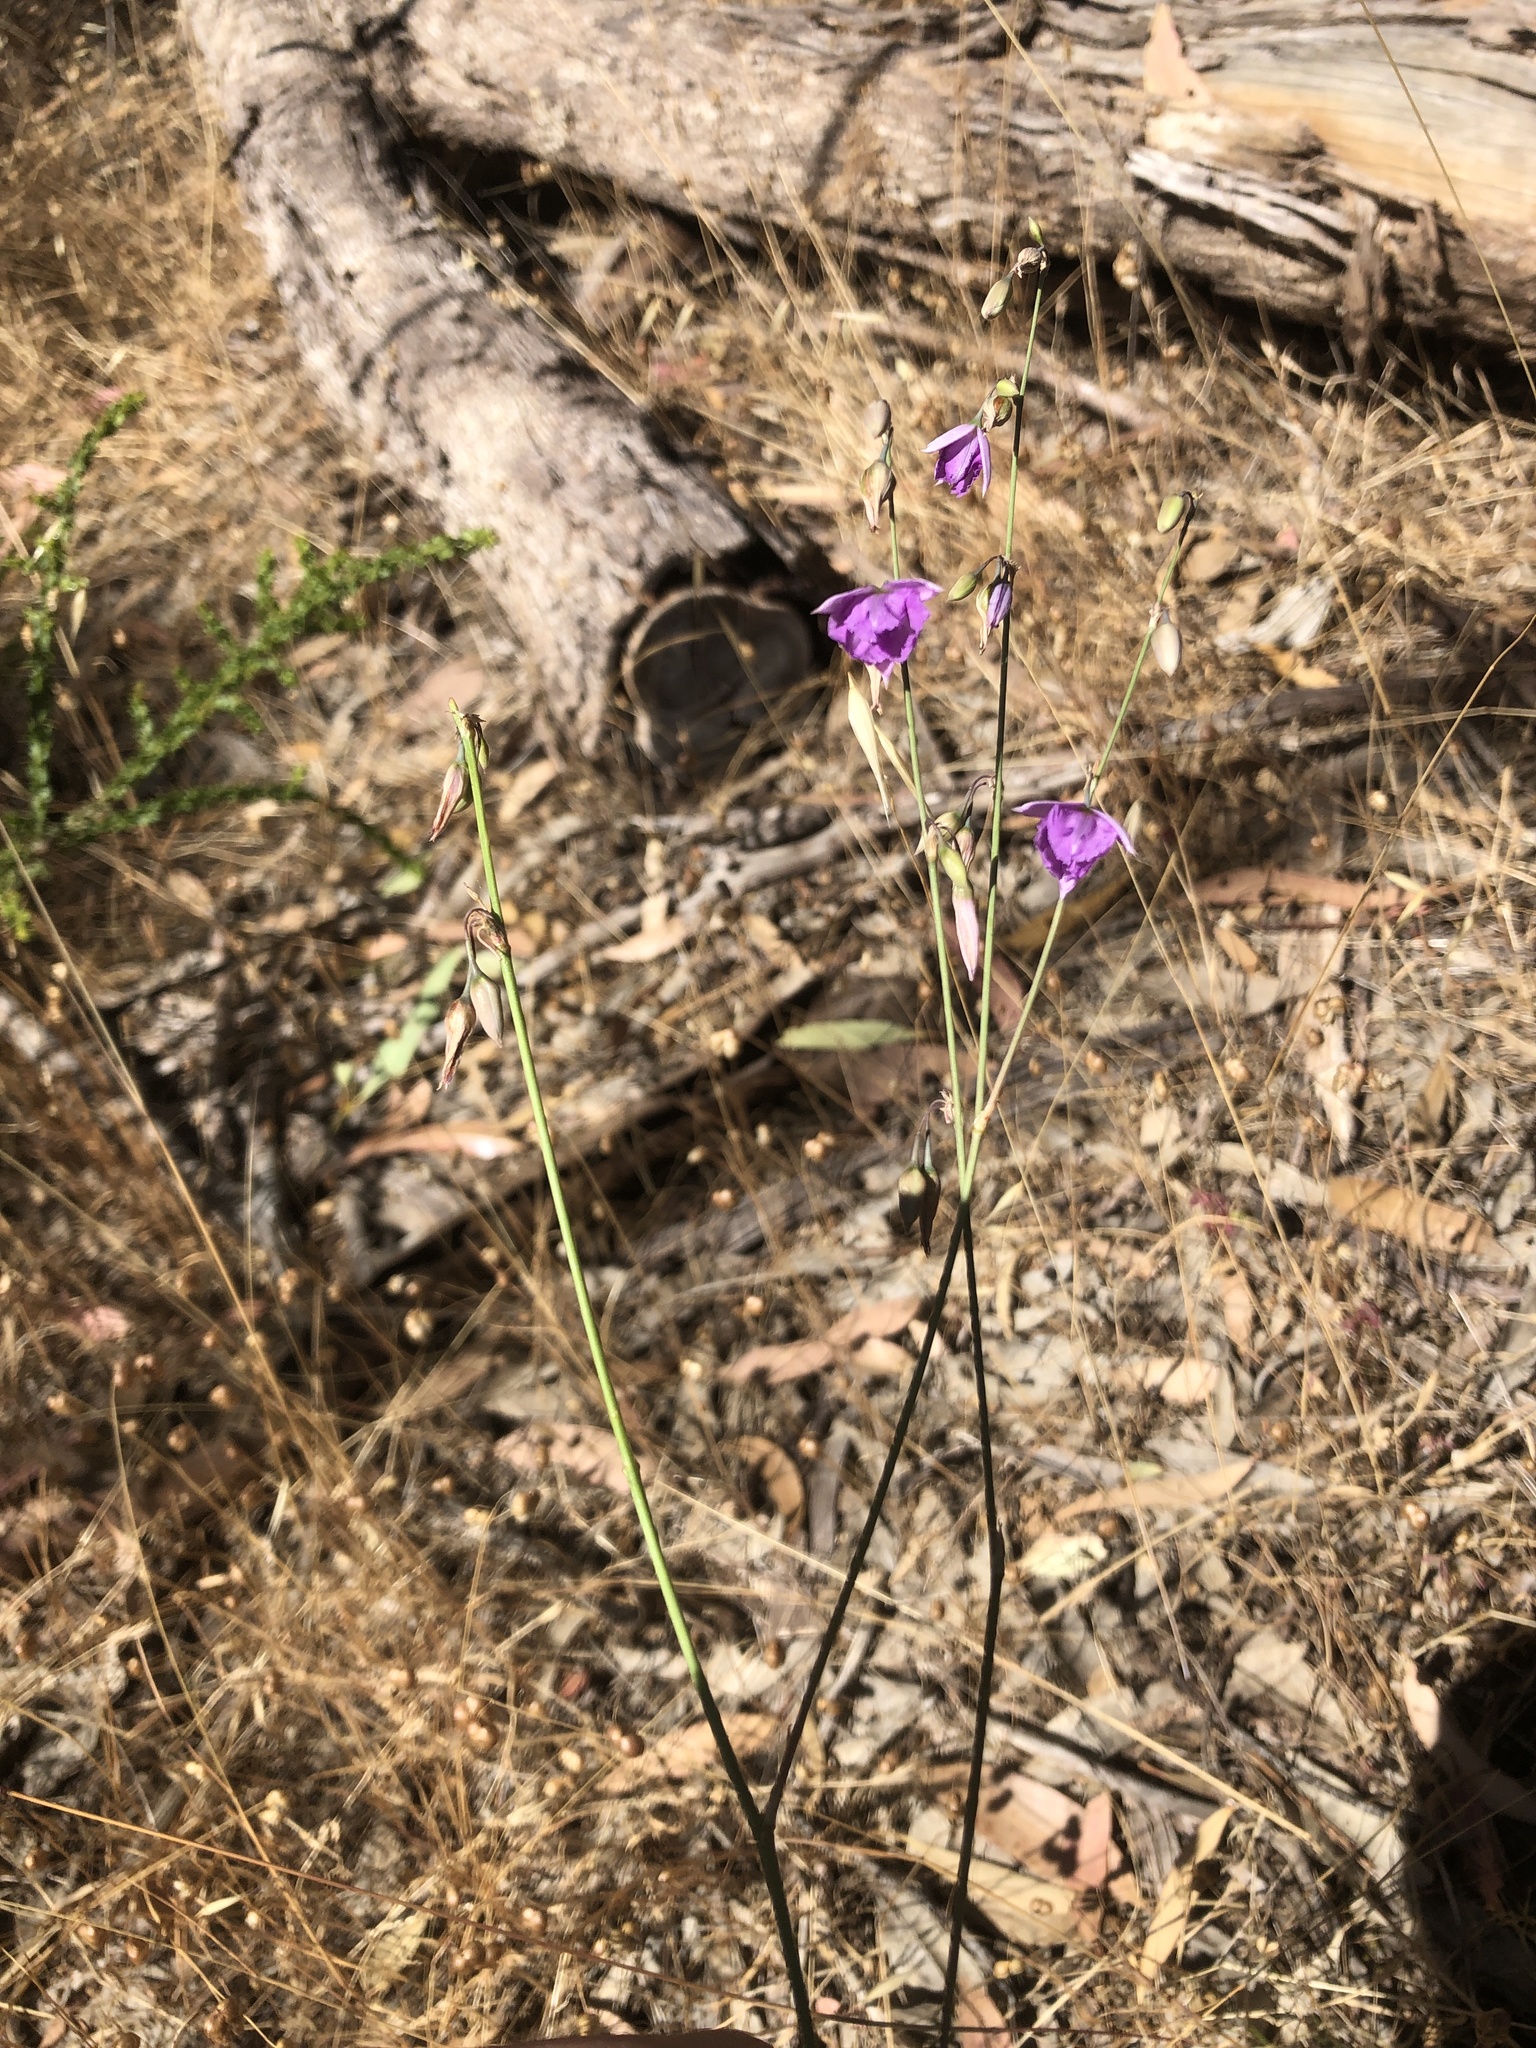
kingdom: Plantae
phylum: Tracheophyta
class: Liliopsida
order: Asparagales
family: Asparagaceae
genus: Dichopogon
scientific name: Dichopogon fimbriatus
